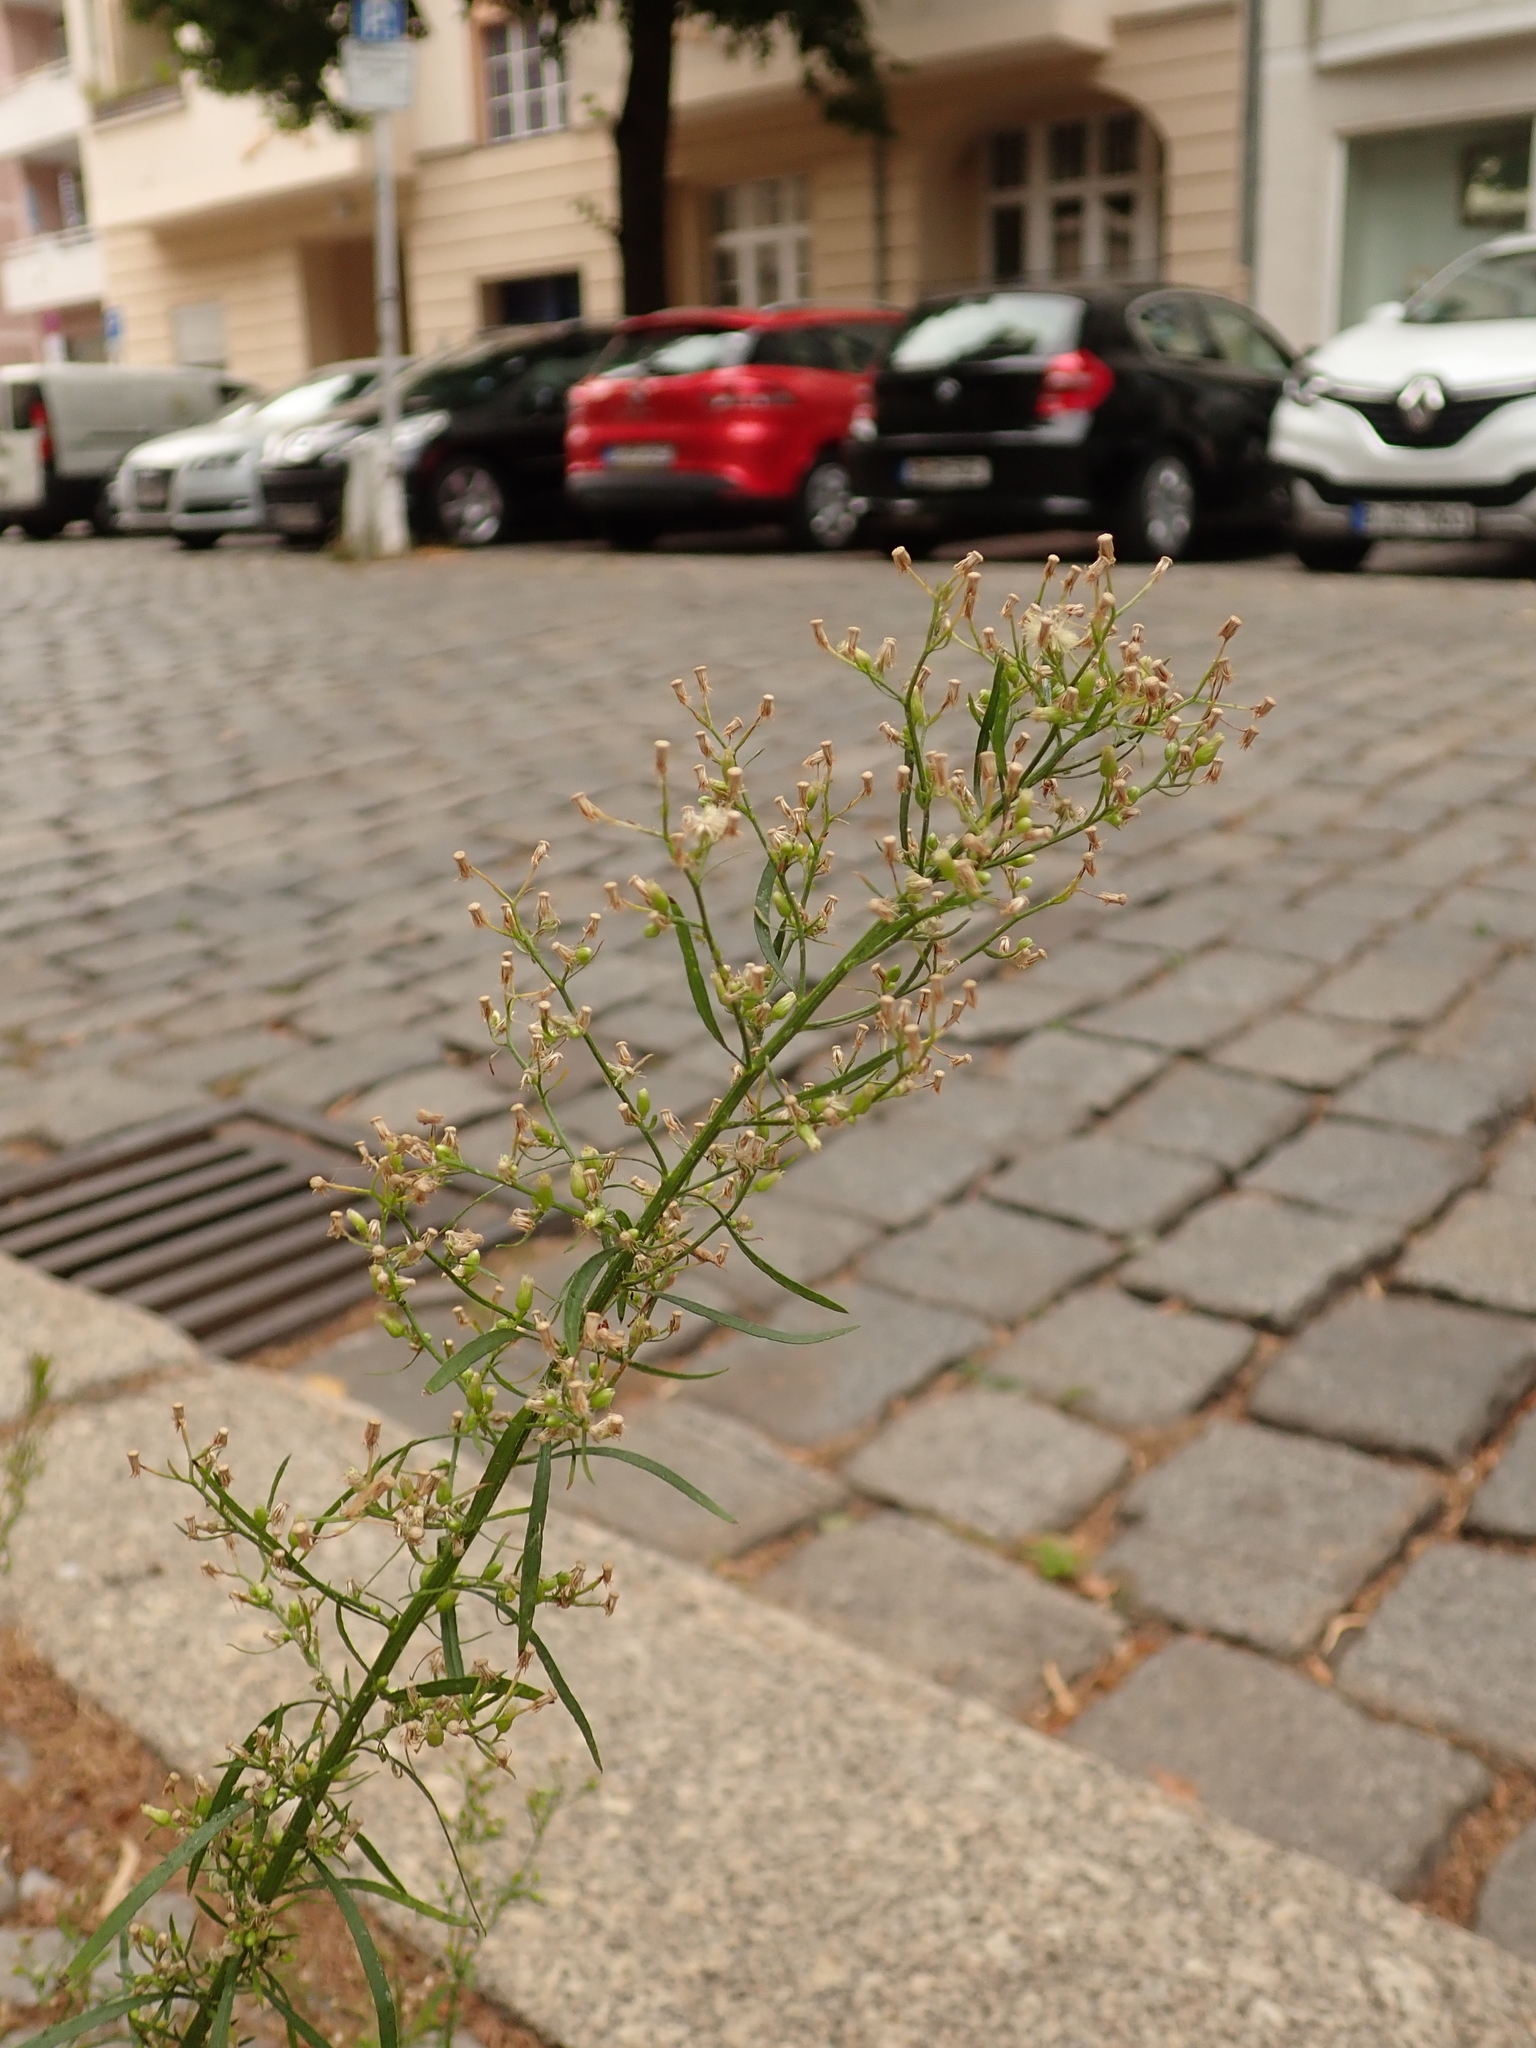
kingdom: Plantae
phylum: Tracheophyta
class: Magnoliopsida
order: Asterales
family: Asteraceae
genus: Erigeron
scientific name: Erigeron canadensis
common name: Canadian fleabane
